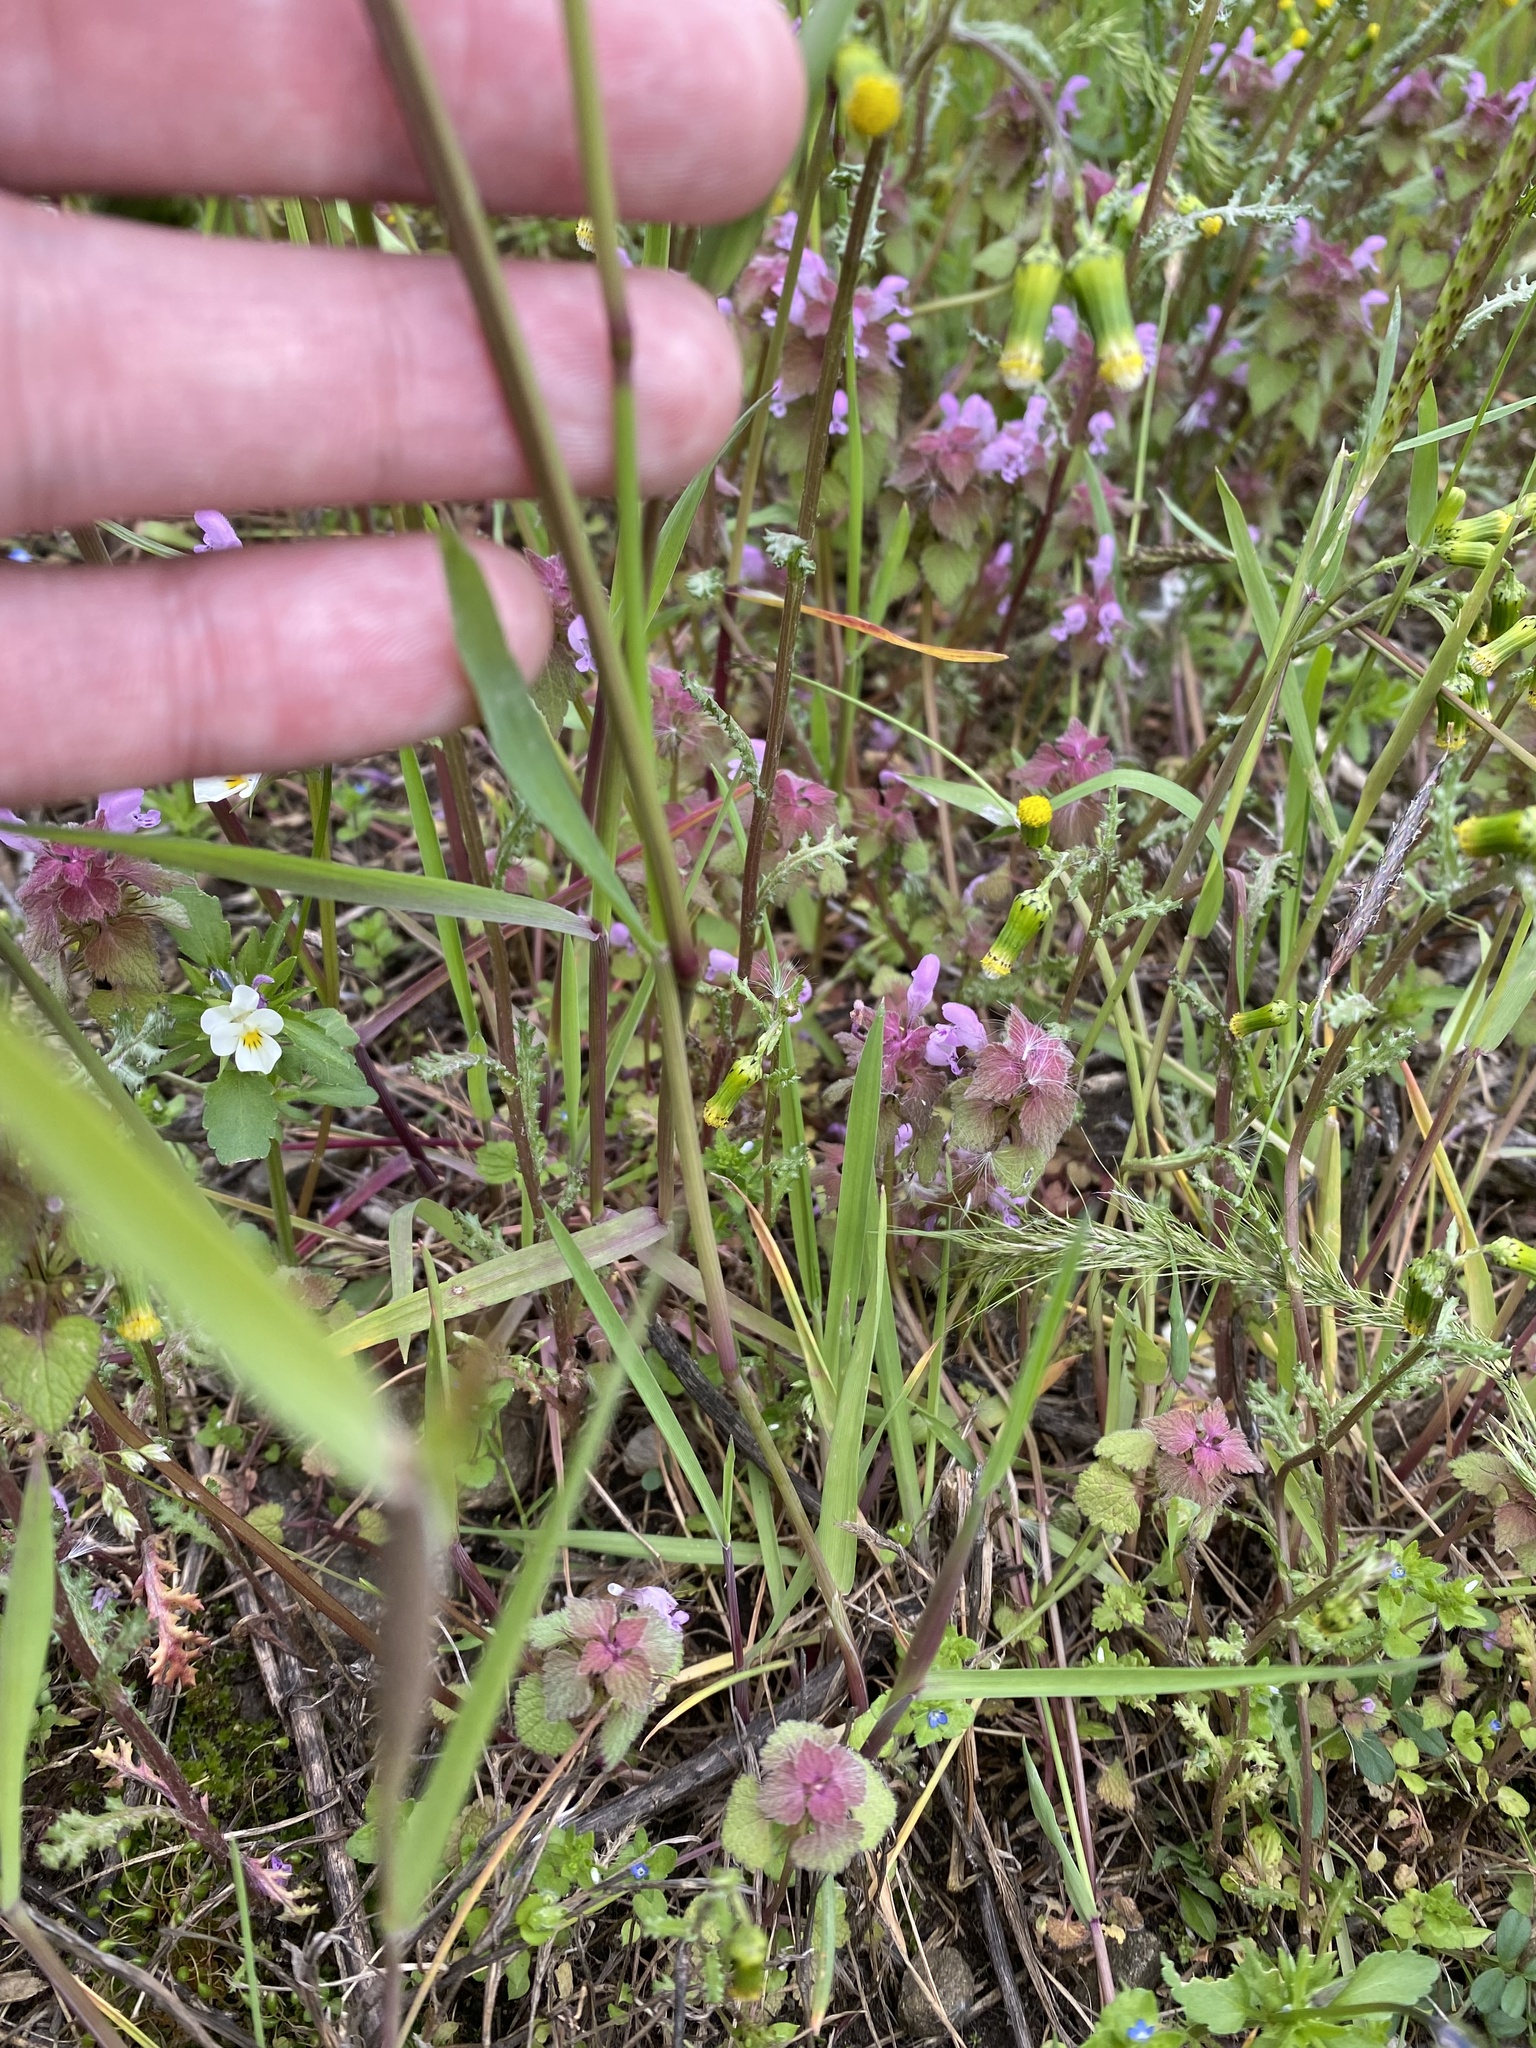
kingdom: Plantae
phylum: Tracheophyta
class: Liliopsida
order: Poales
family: Poaceae
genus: Alopecurus
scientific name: Alopecurus myosuroides
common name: Black-grass
